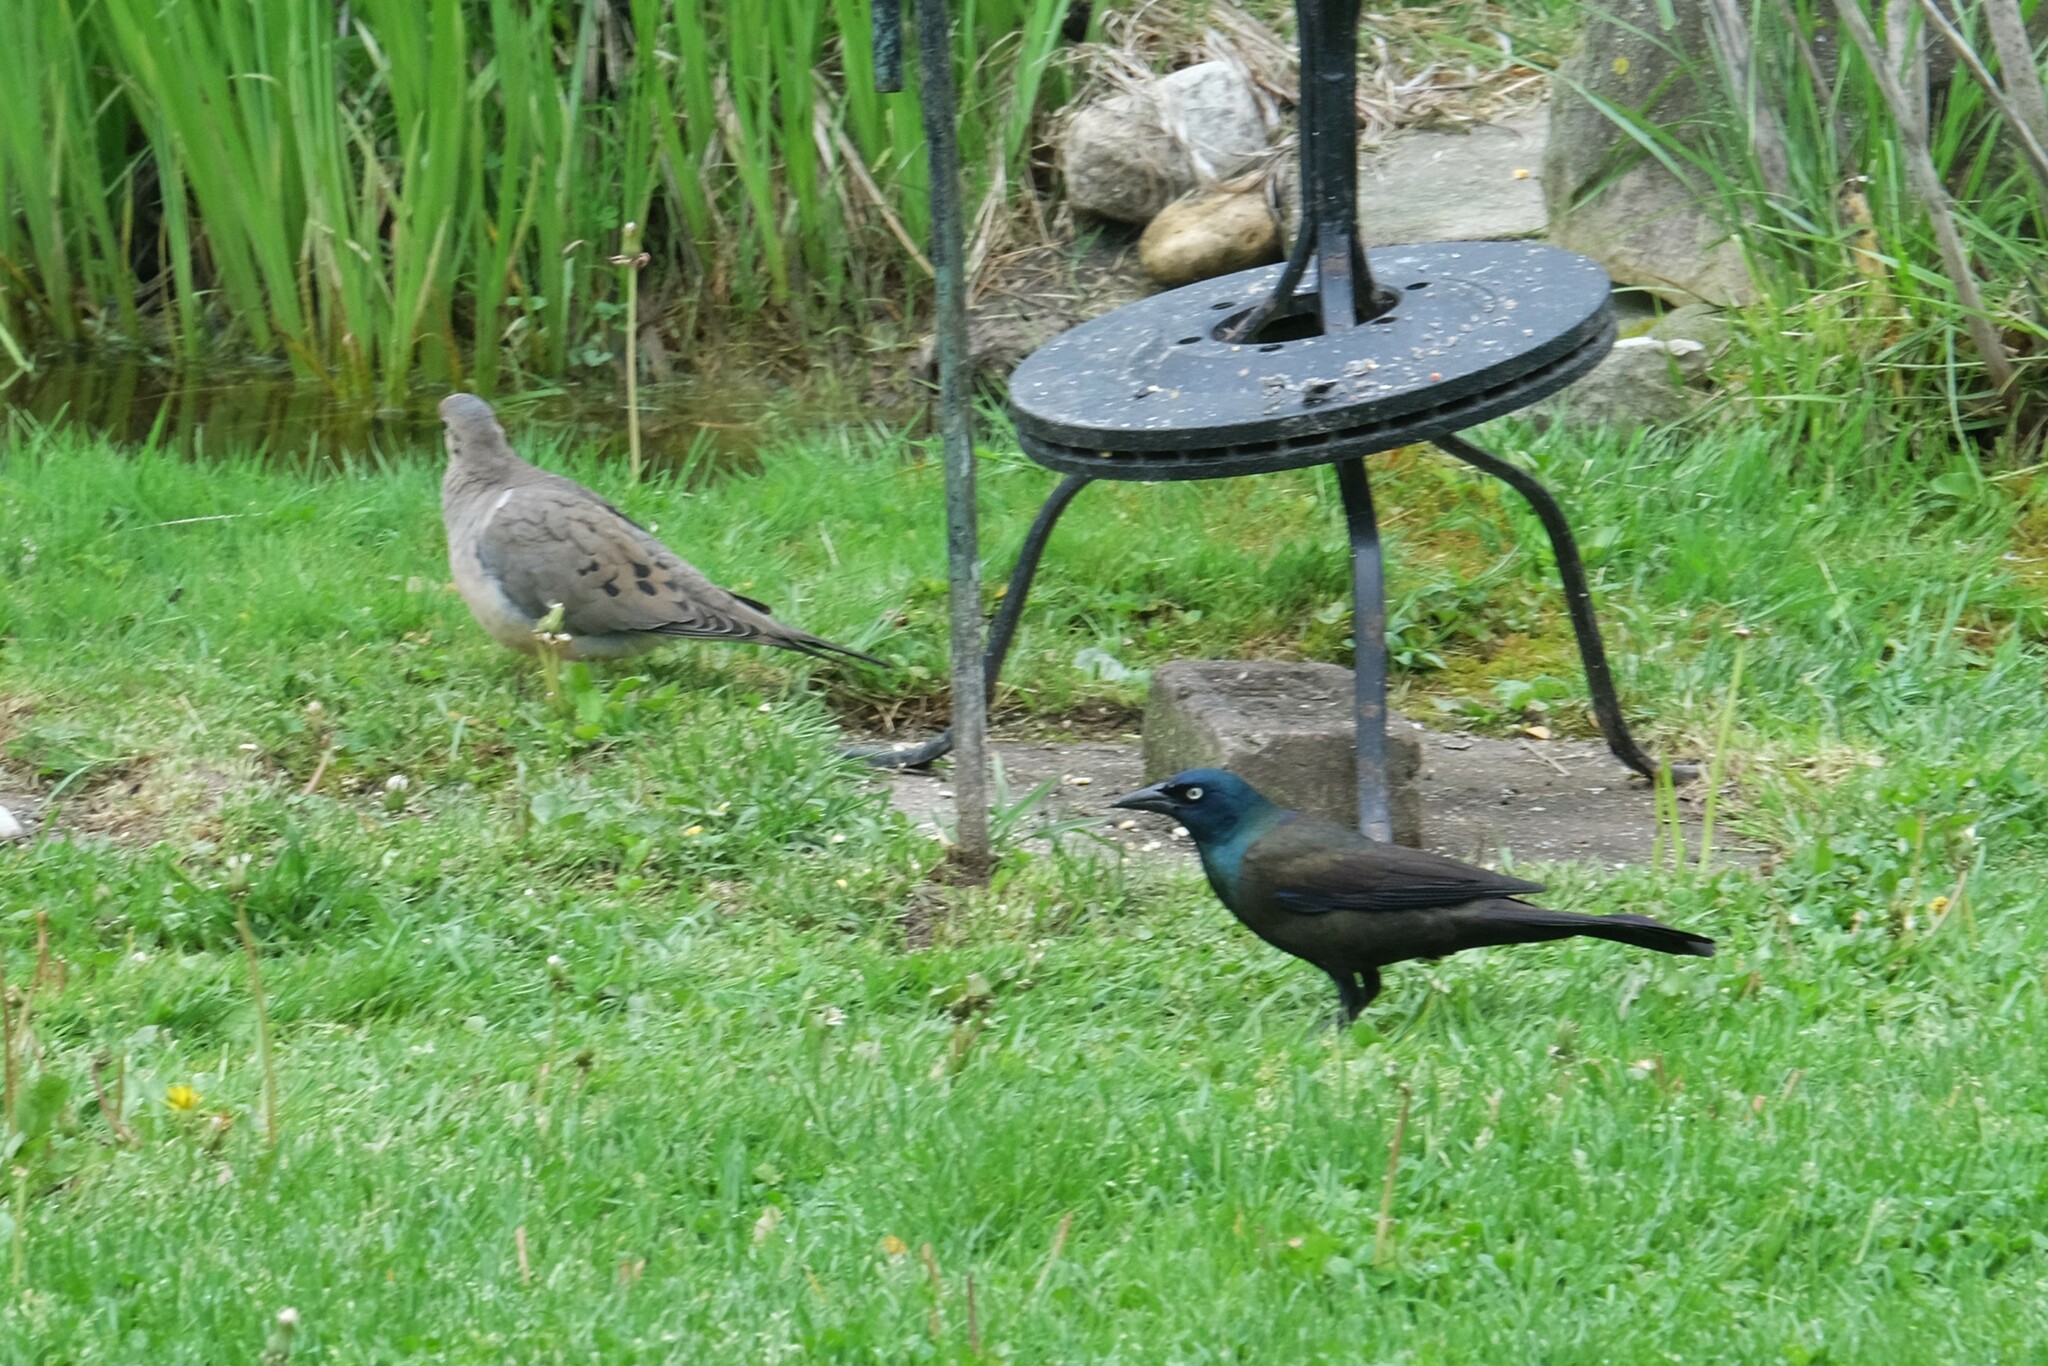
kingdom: Animalia
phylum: Chordata
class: Aves
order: Passeriformes
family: Icteridae
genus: Quiscalus
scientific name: Quiscalus quiscula
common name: Common grackle
